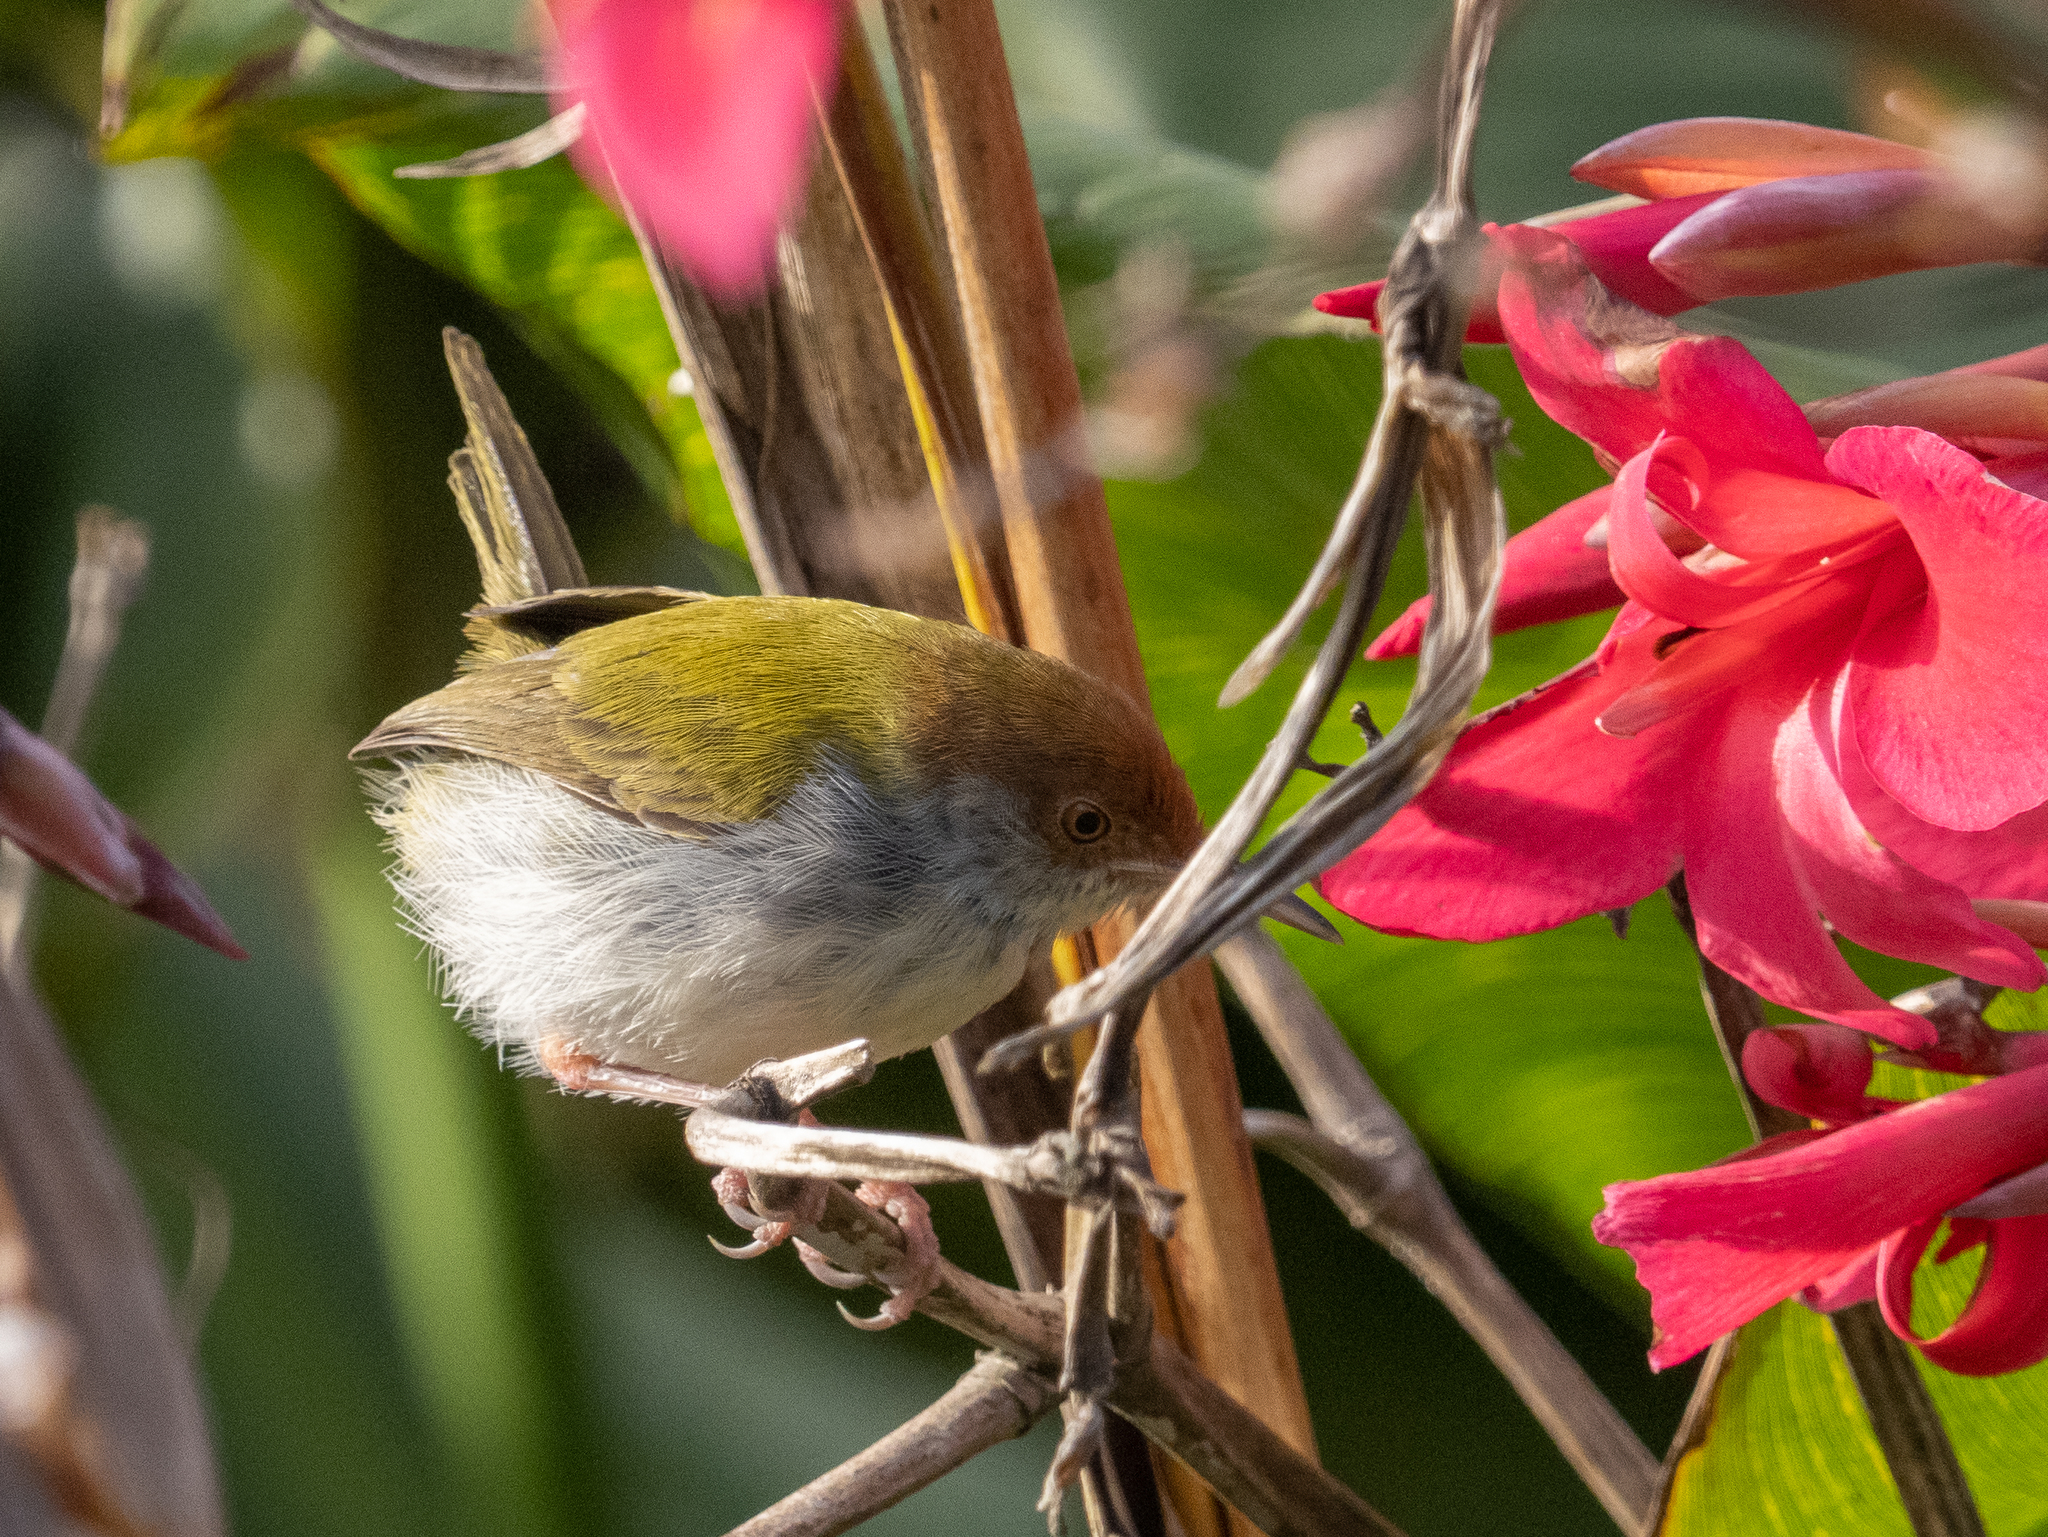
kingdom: Animalia
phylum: Chordata
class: Aves
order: Passeriformes
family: Cisticolidae
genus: Orthotomus
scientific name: Orthotomus sutorius
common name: Common tailorbird
